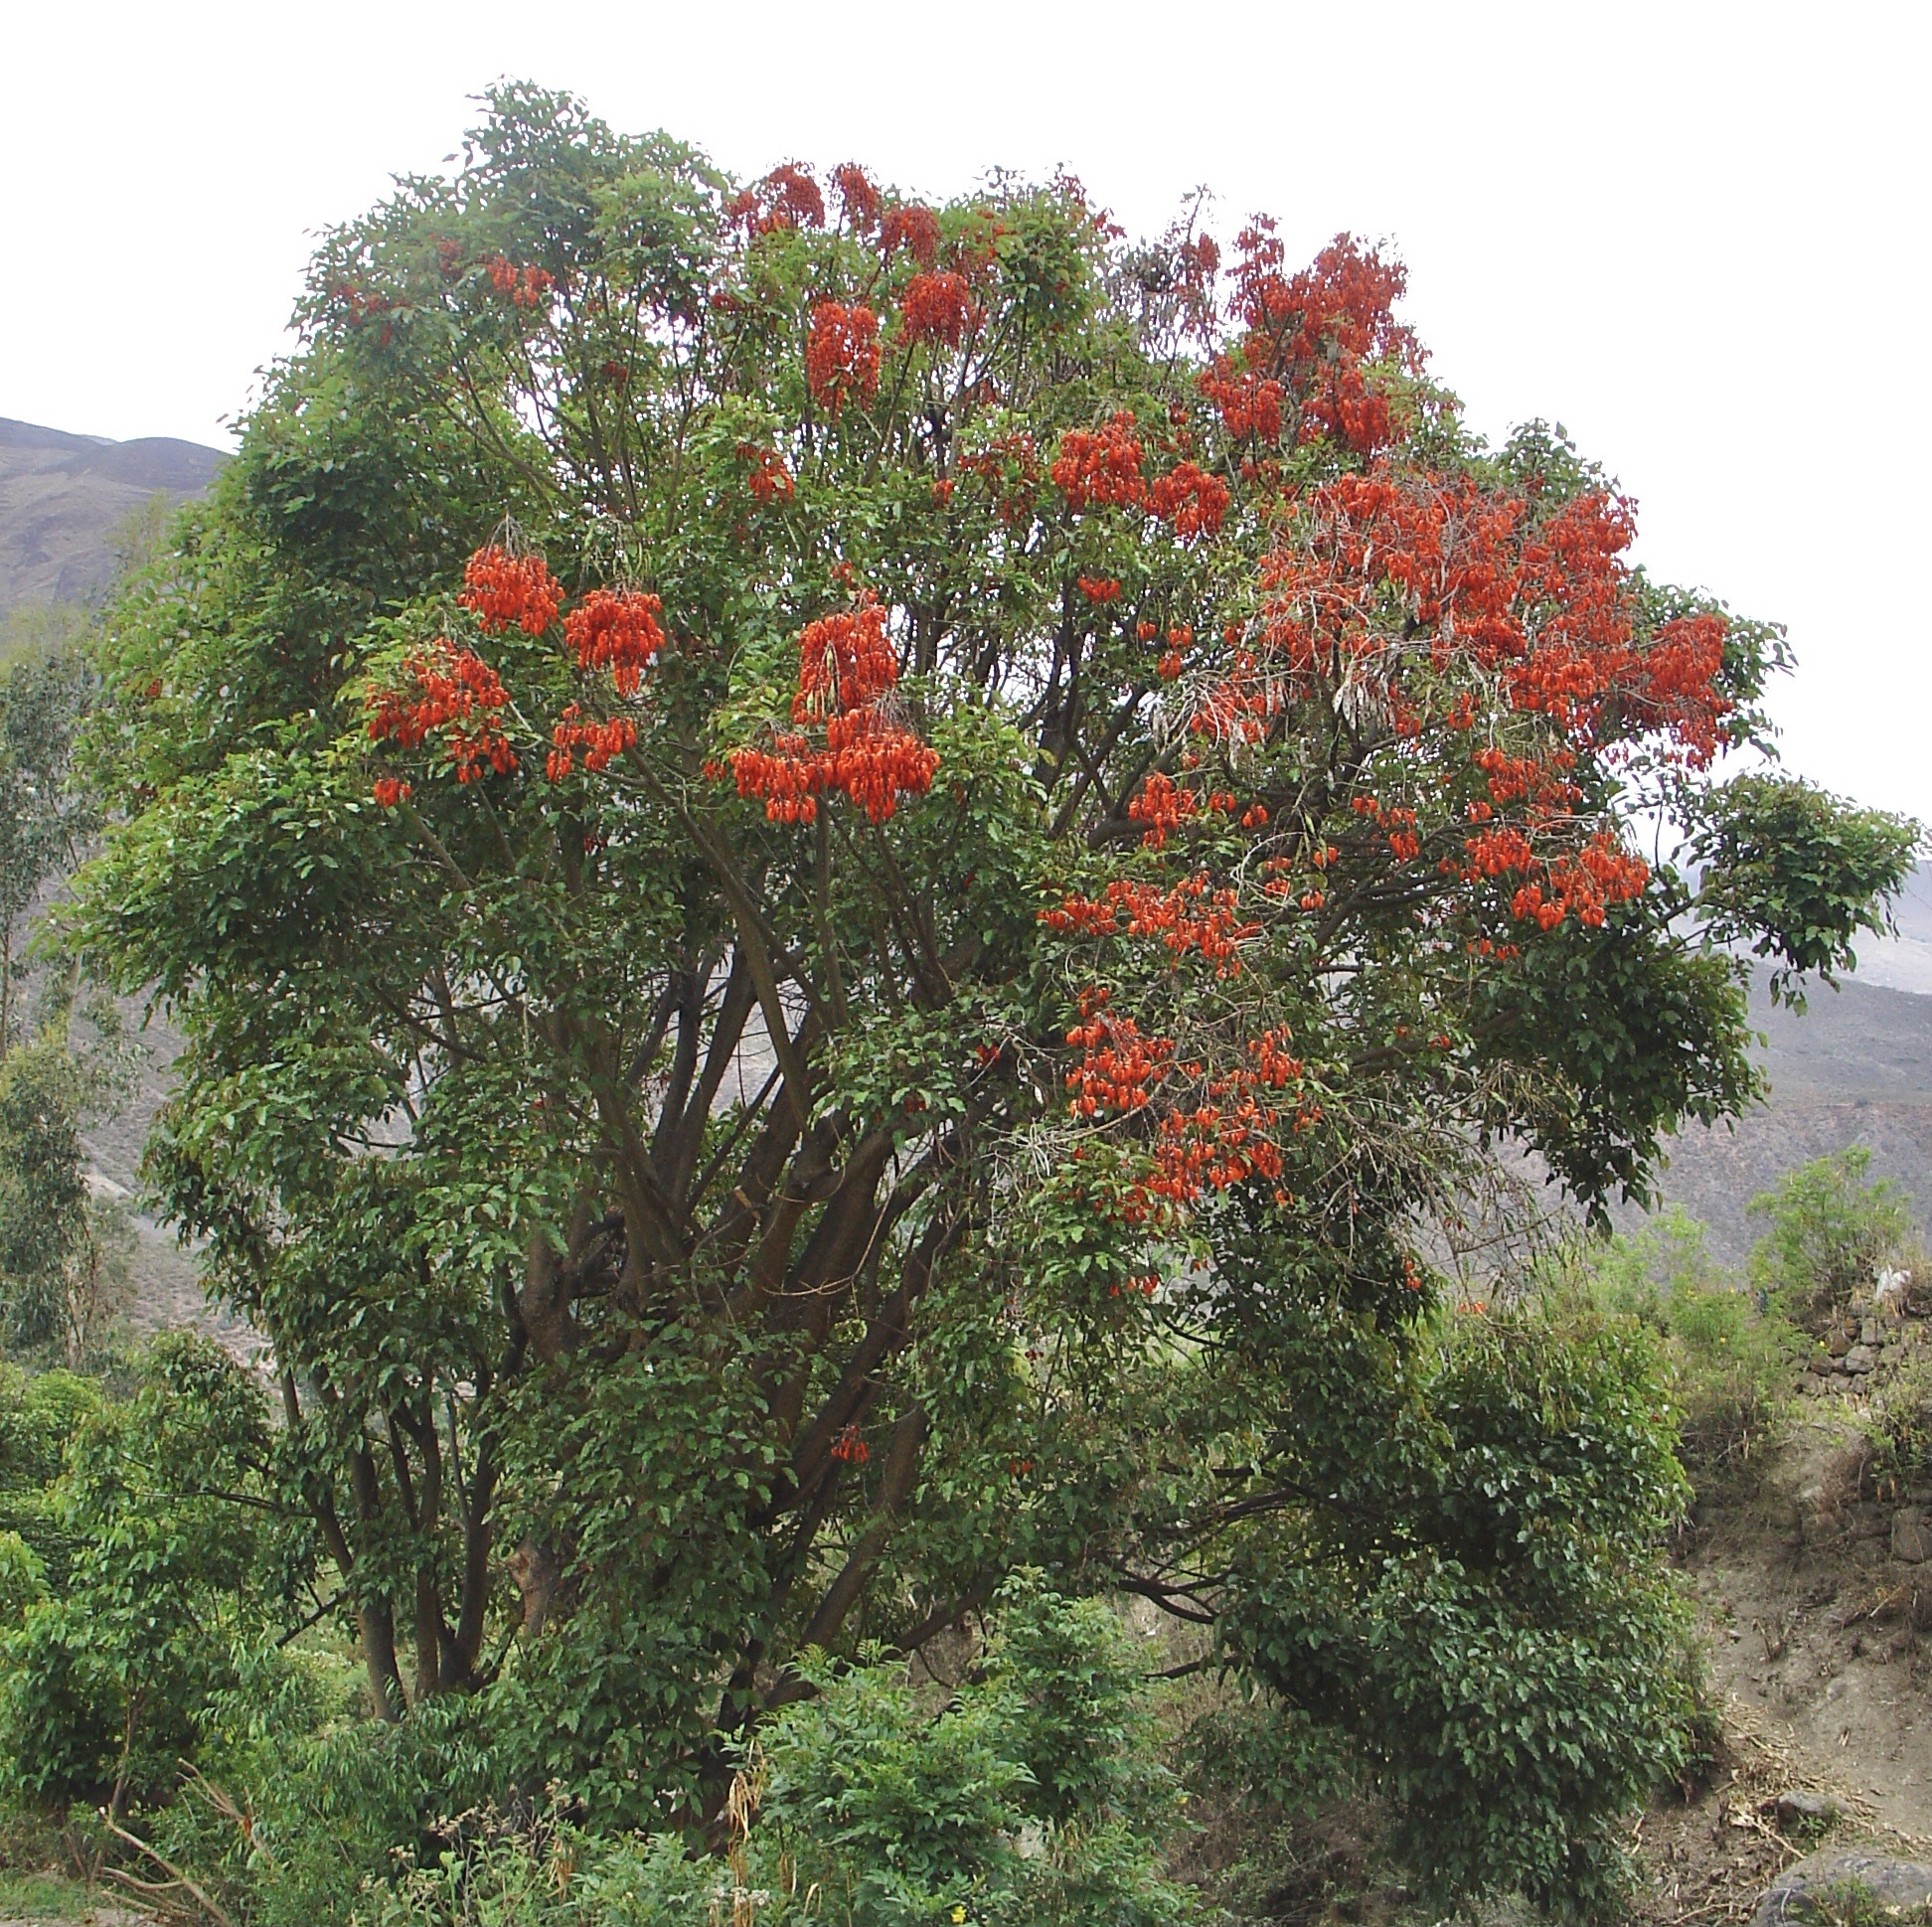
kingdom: Plantae
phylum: Tracheophyta
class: Magnoliopsida
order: Fabales
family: Fabaceae
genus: Erythrina
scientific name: Erythrina falcata
